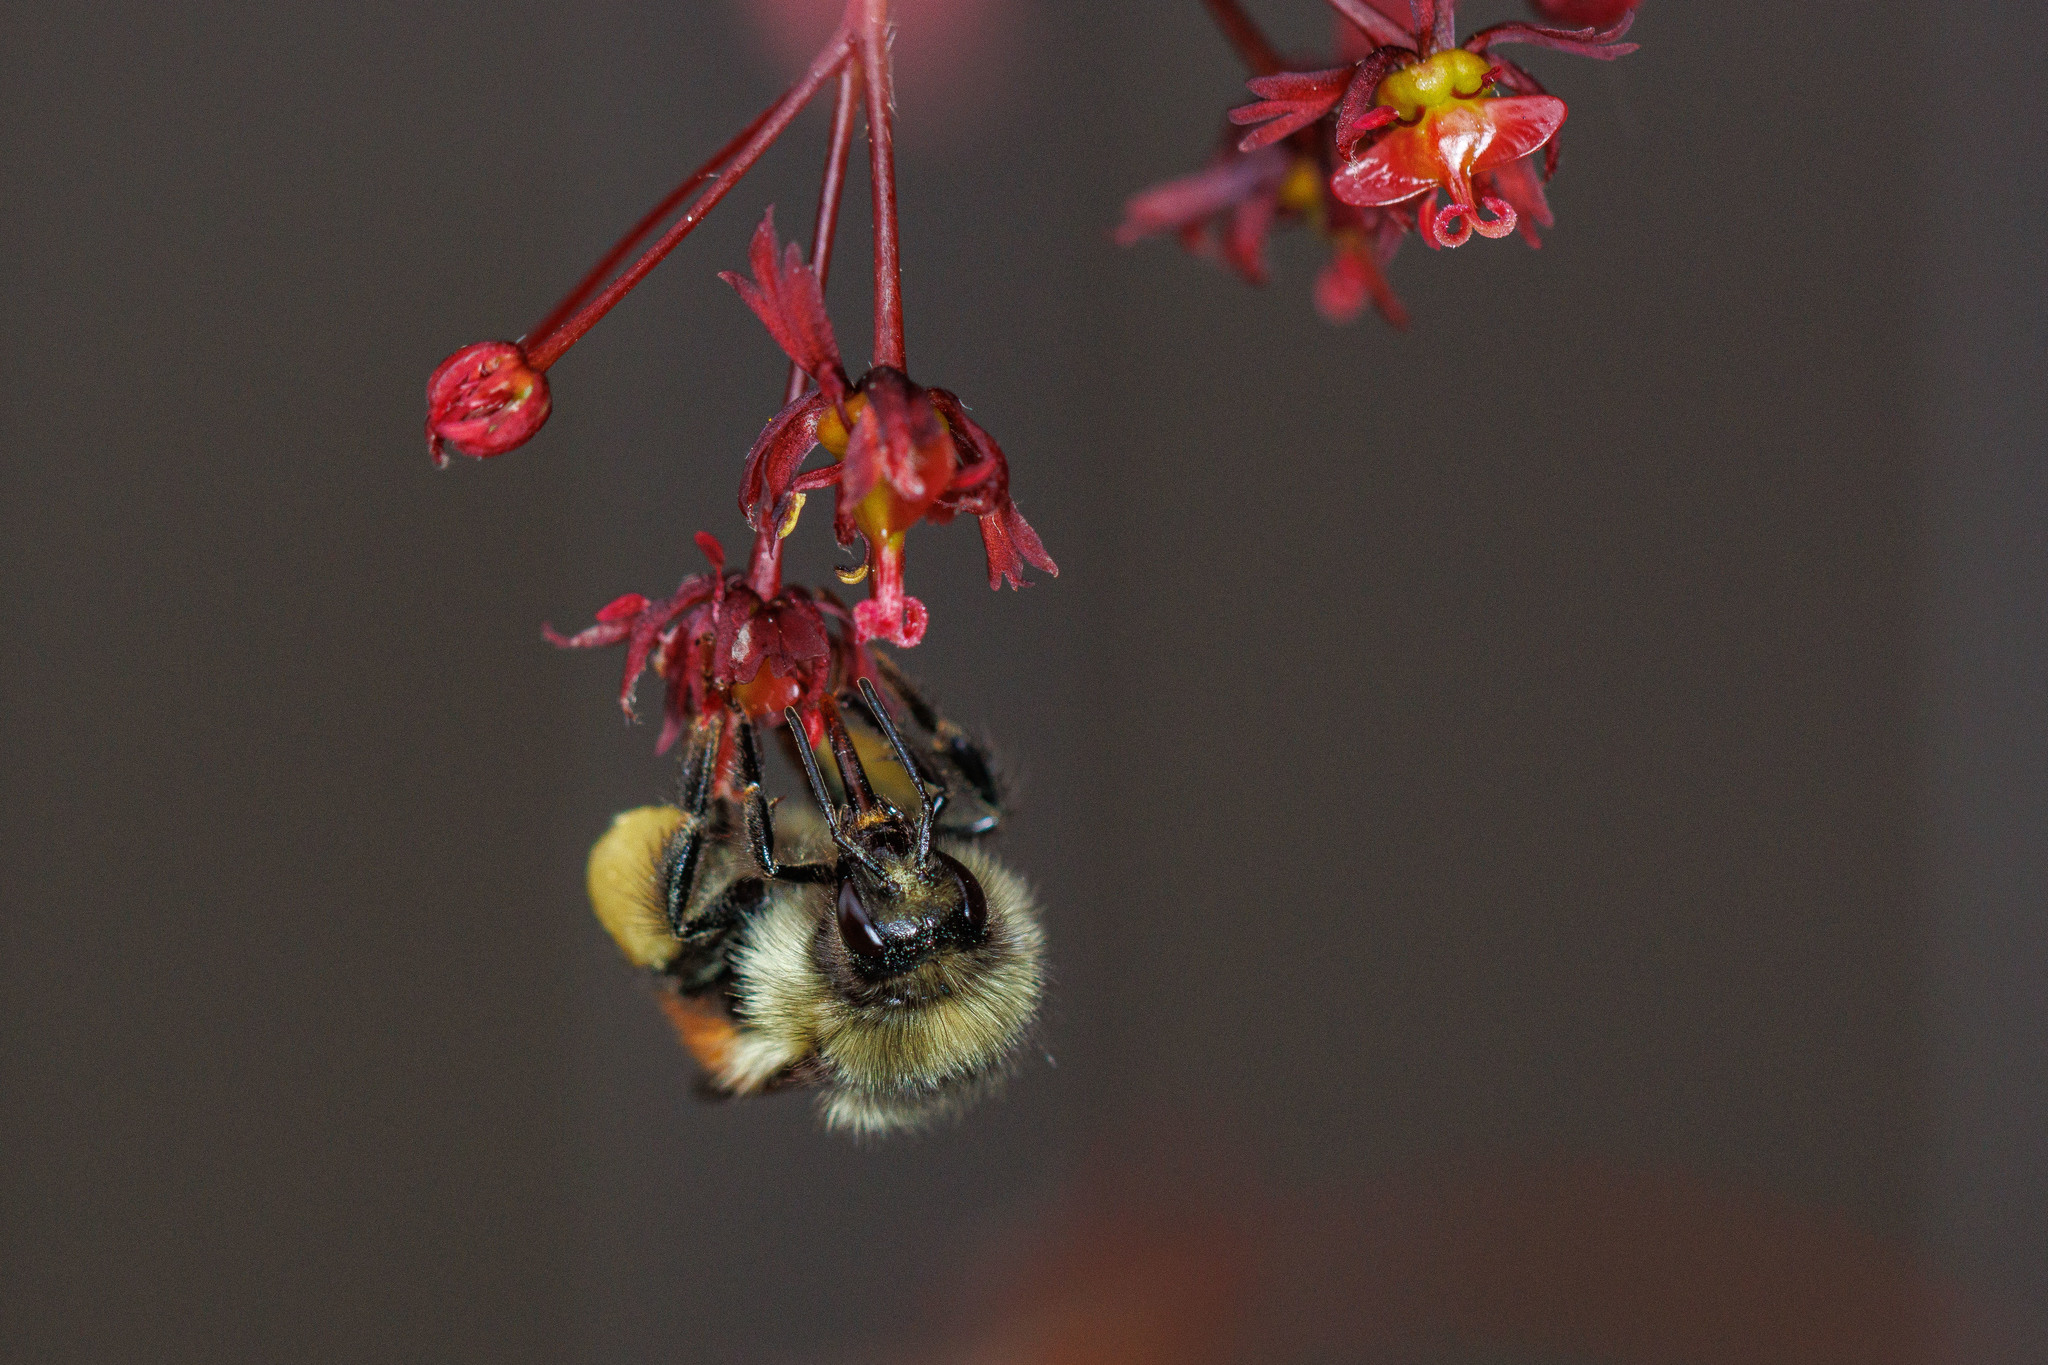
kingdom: Animalia
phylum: Arthropoda
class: Insecta
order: Hymenoptera
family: Apidae
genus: Bombus
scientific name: Bombus melanopygus
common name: Black tail bumble bee
